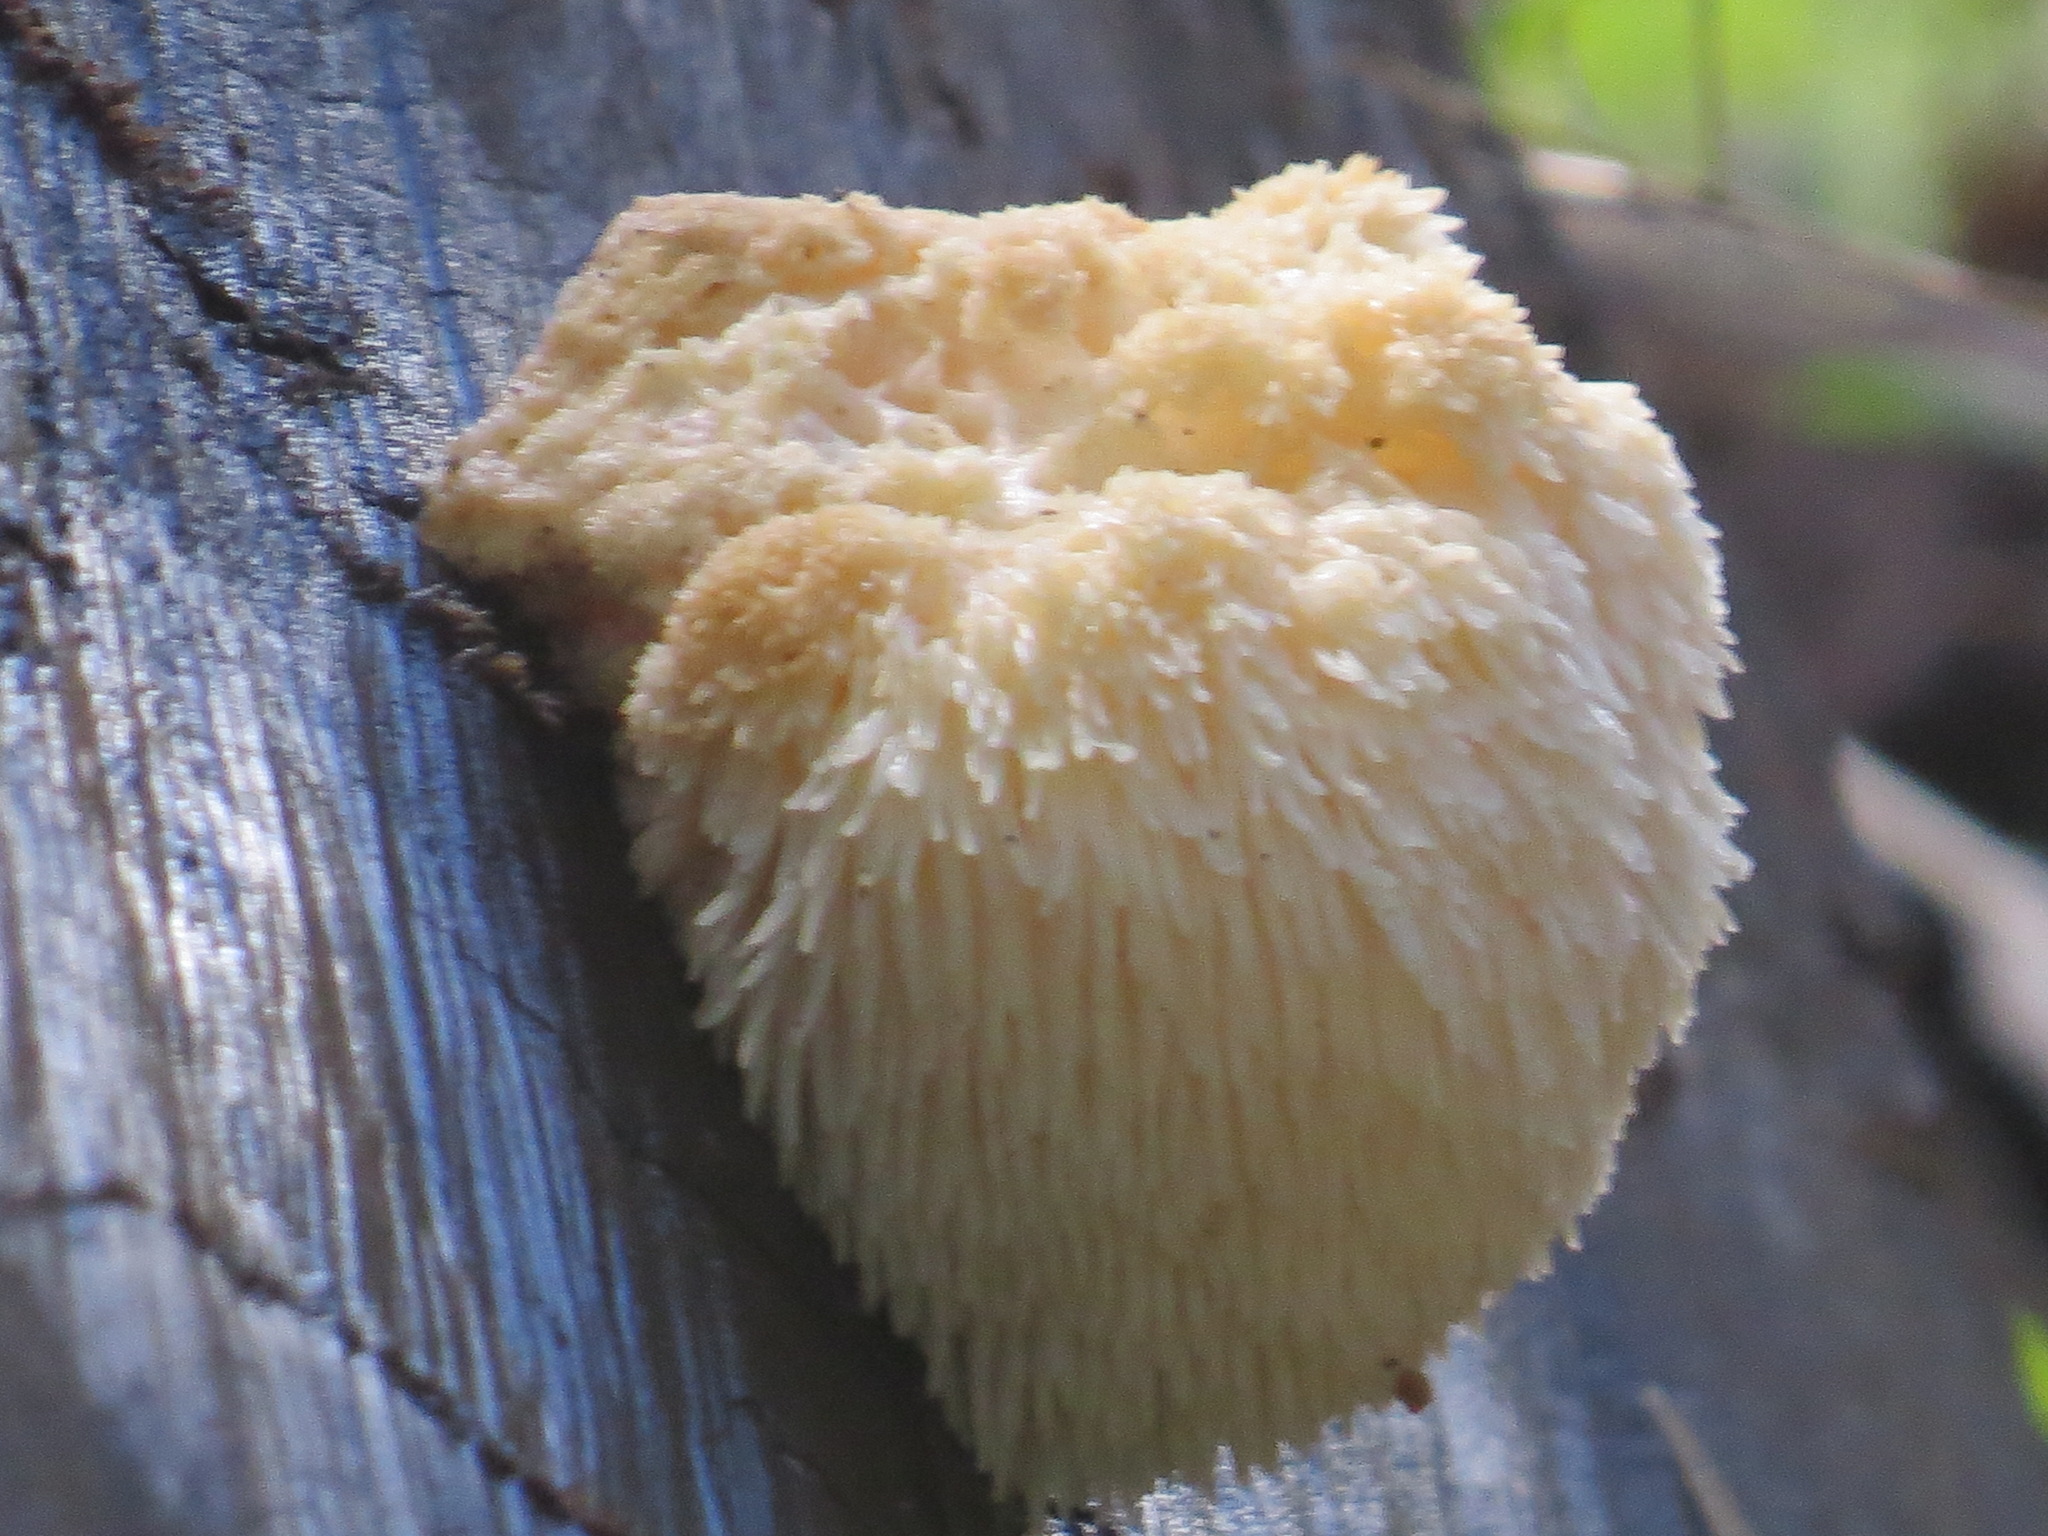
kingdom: Fungi
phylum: Basidiomycota
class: Agaricomycetes
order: Russulales
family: Hericiaceae
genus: Hericium
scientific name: Hericium erinaceus
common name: Bearded tooth
